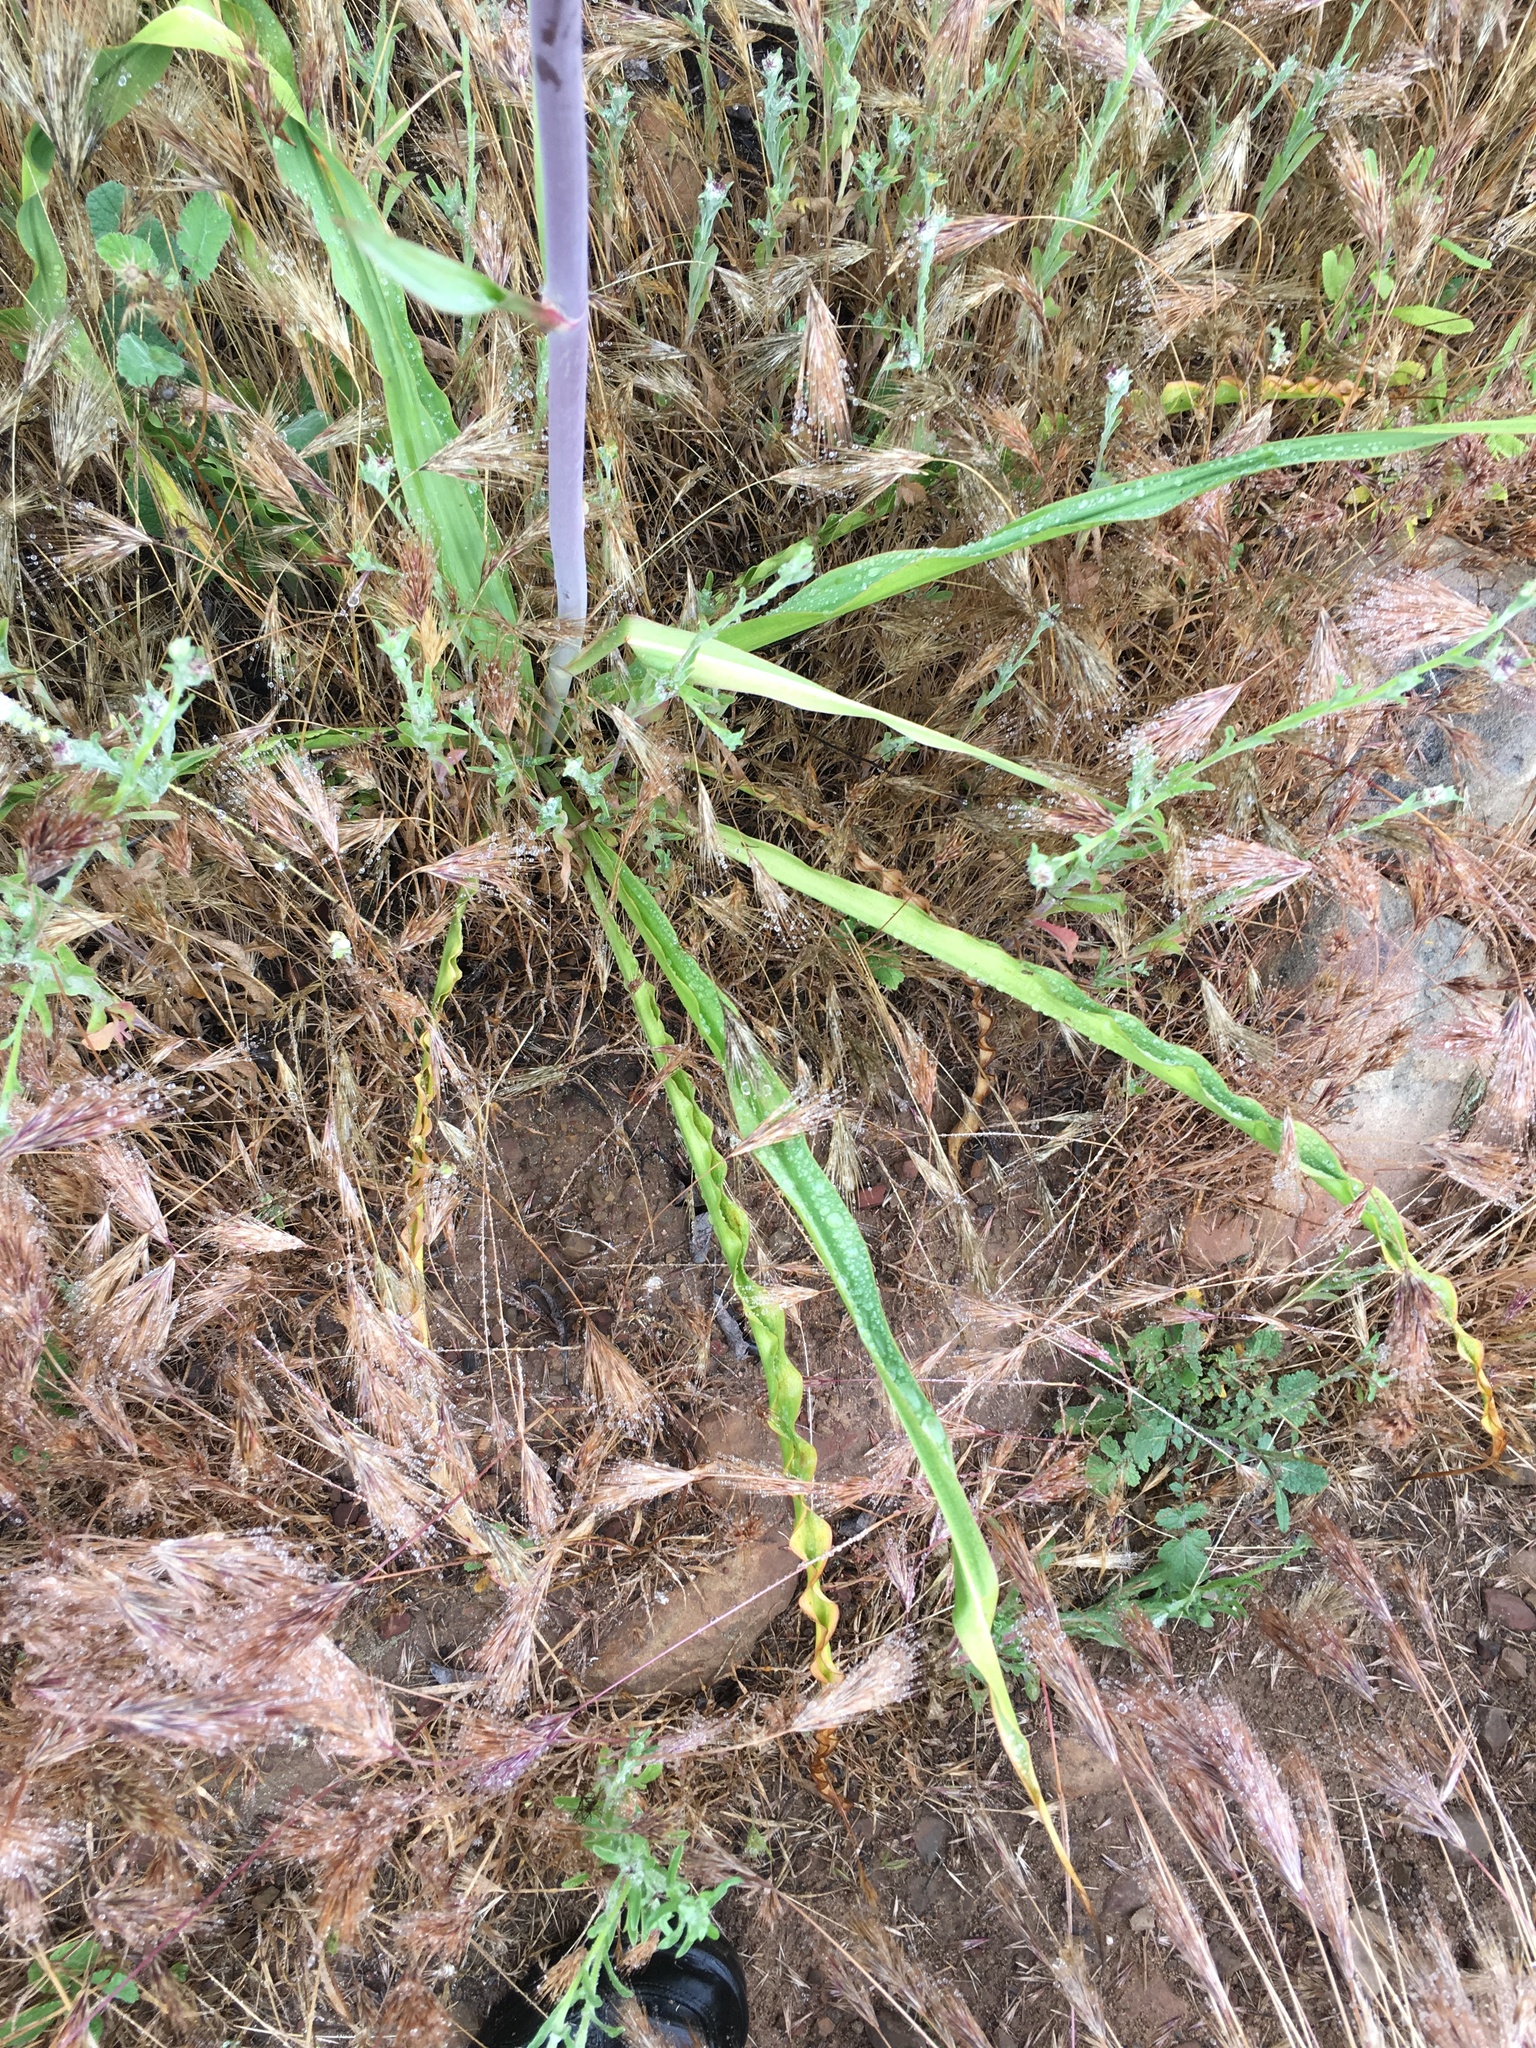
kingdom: Plantae
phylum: Tracheophyta
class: Liliopsida
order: Asparagales
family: Asparagaceae
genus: Chlorogalum
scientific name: Chlorogalum pomeridianum
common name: Amole
